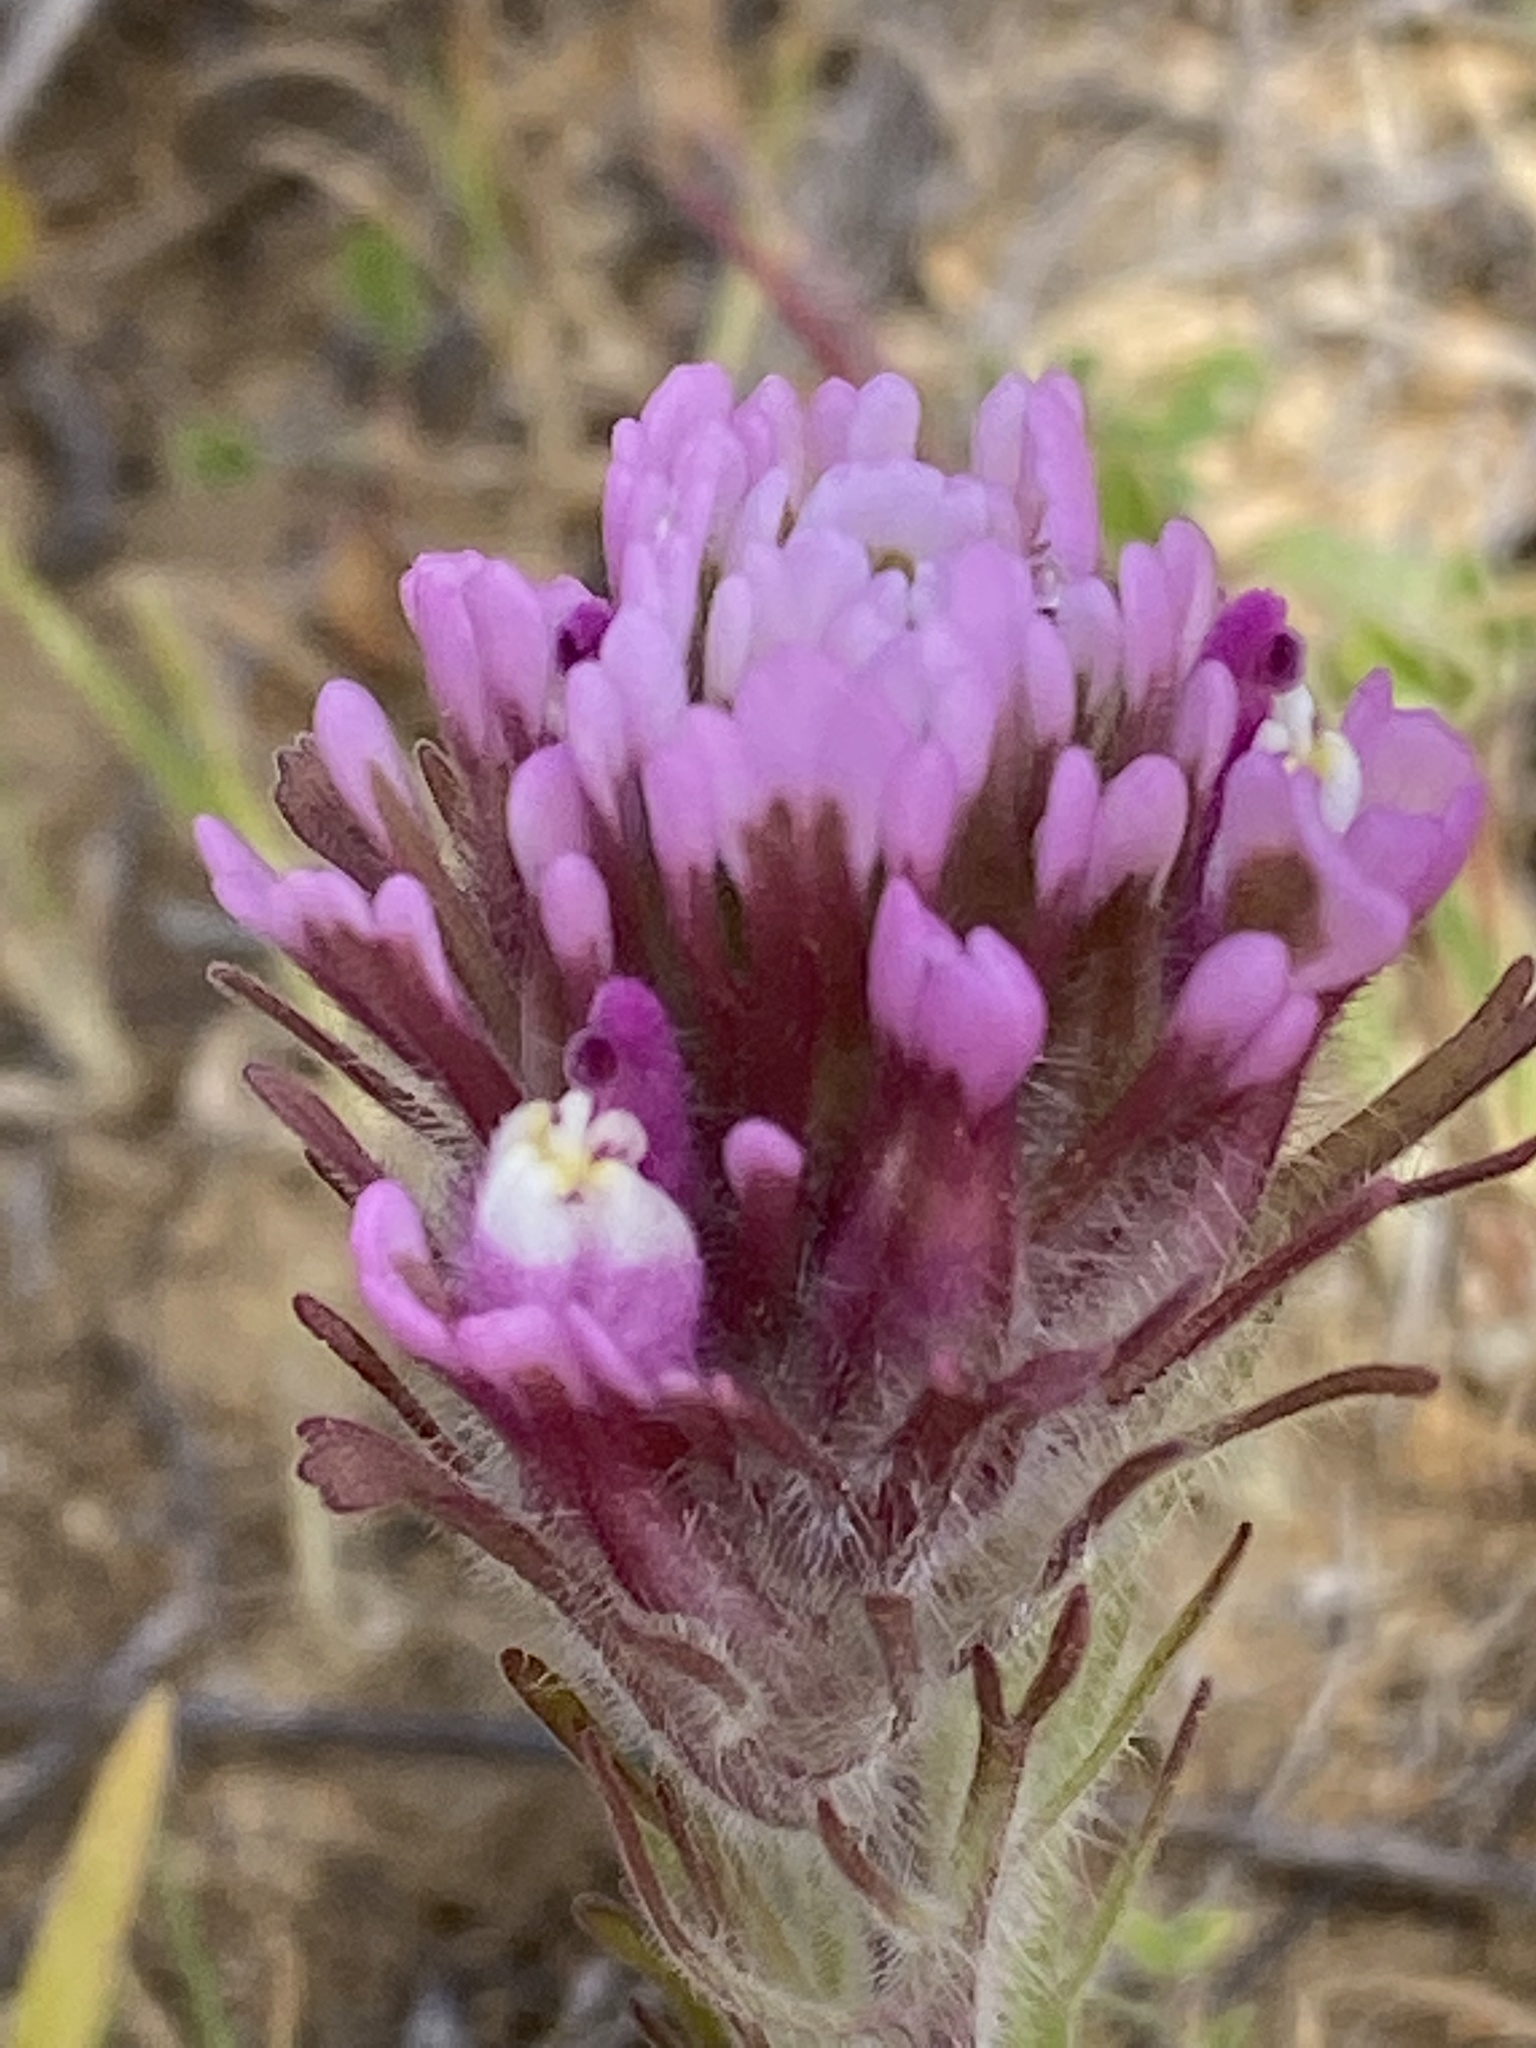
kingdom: Plantae
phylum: Tracheophyta
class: Magnoliopsida
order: Lamiales
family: Orobanchaceae
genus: Castilleja
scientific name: Castilleja exserta
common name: Purple owl-clover
